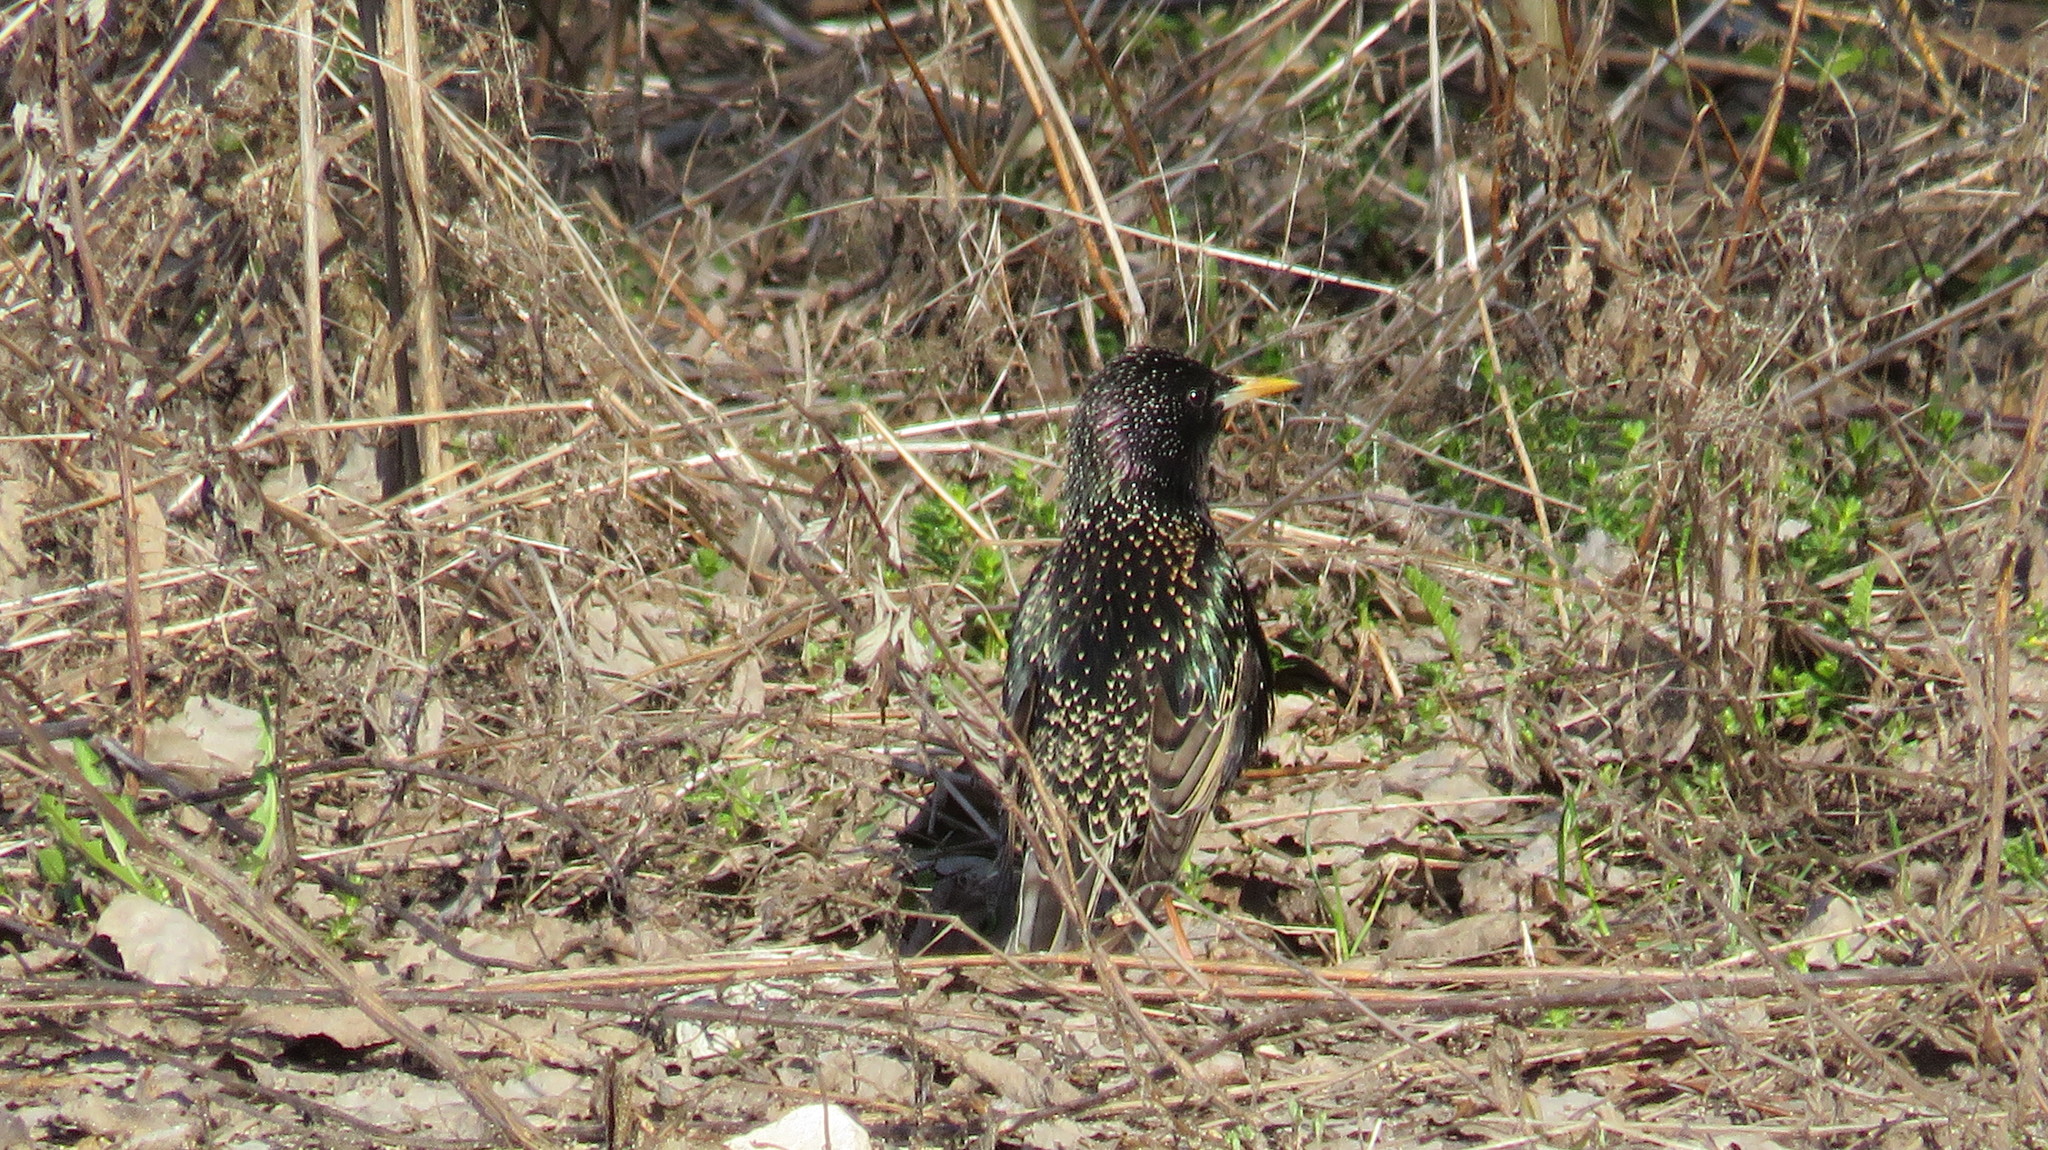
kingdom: Animalia
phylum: Chordata
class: Aves
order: Passeriformes
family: Sturnidae
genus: Sturnus
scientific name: Sturnus vulgaris
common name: Common starling
